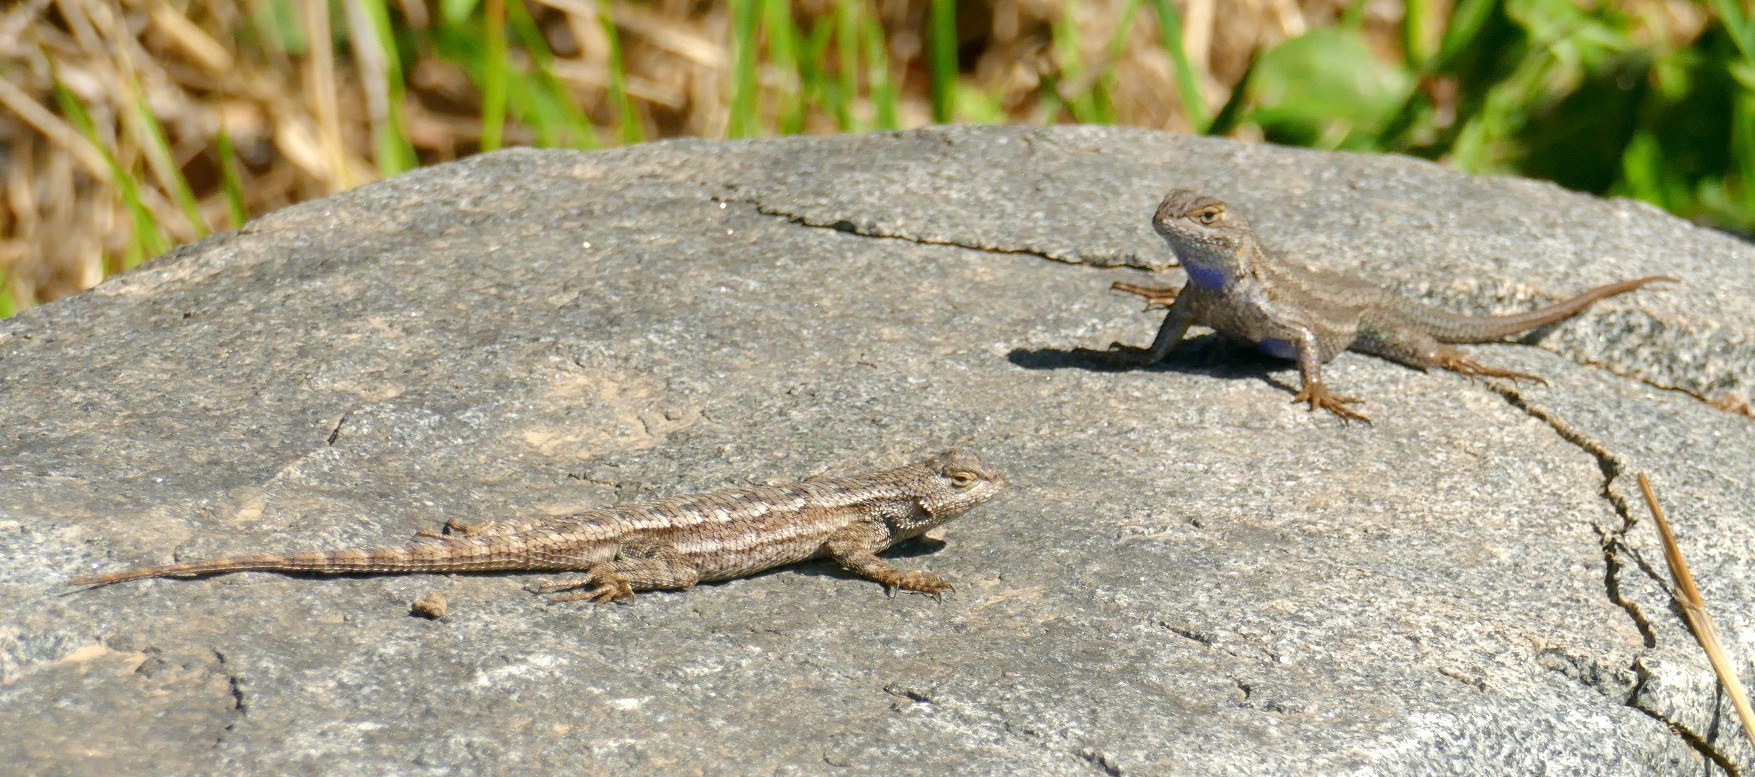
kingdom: Animalia
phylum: Chordata
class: Squamata
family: Phrynosomatidae
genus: Sceloporus
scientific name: Sceloporus occidentalis
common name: Western fence lizard
